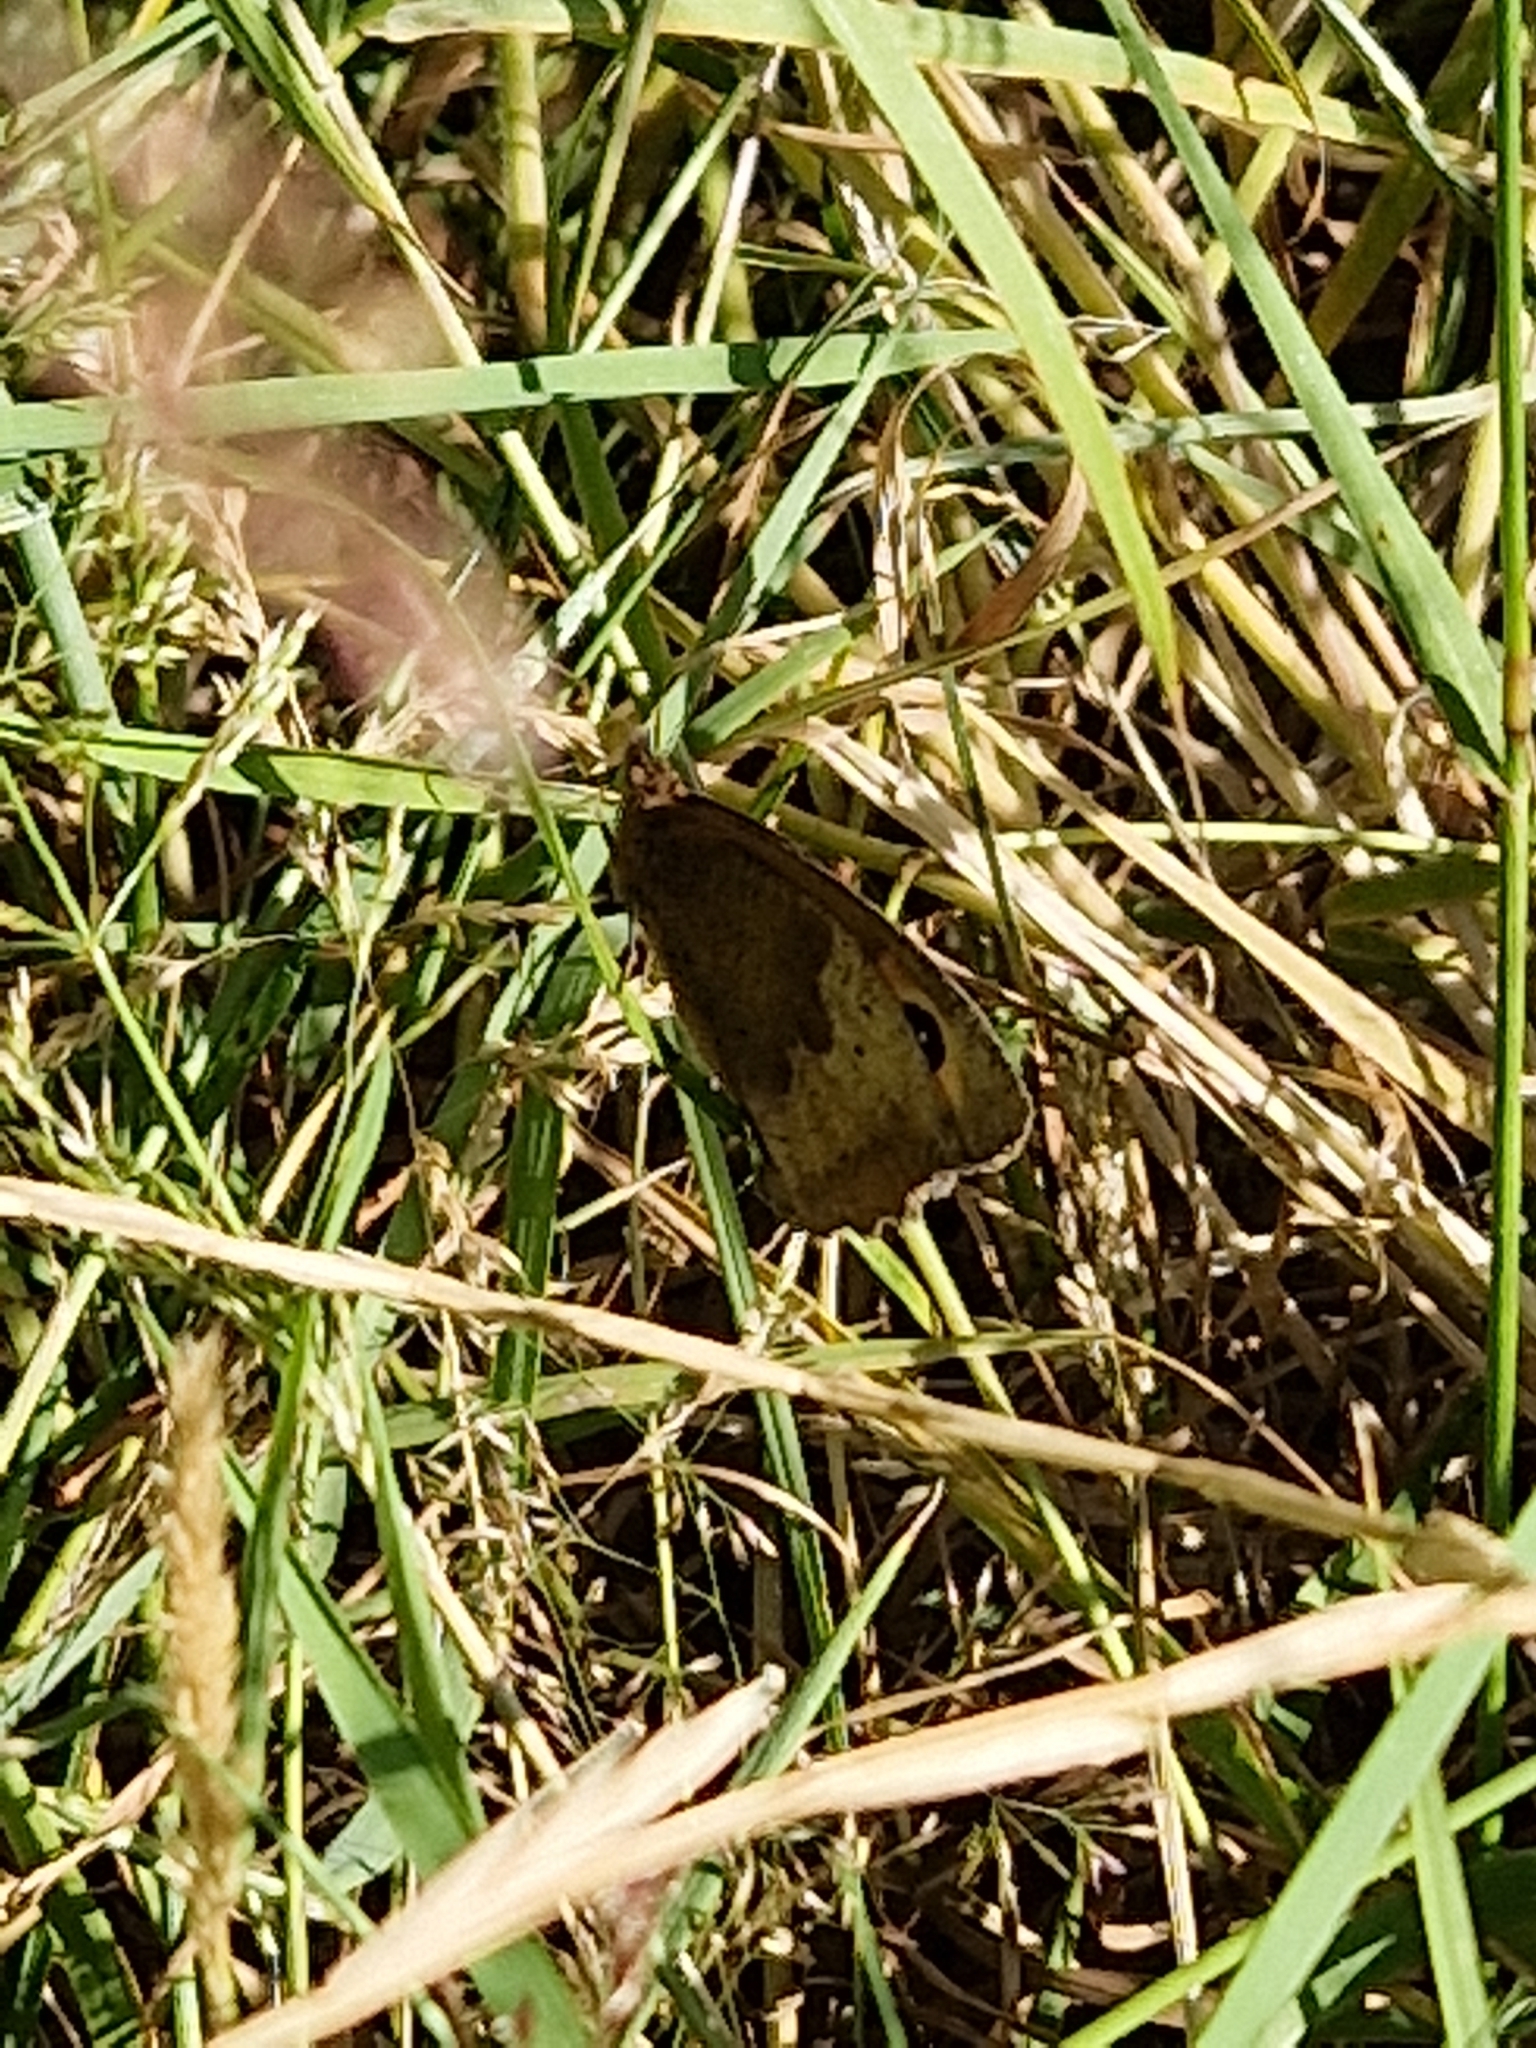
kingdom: Animalia
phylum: Arthropoda
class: Insecta
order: Lepidoptera
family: Nymphalidae
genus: Maniola
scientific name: Maniola jurtina
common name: Meadow brown
